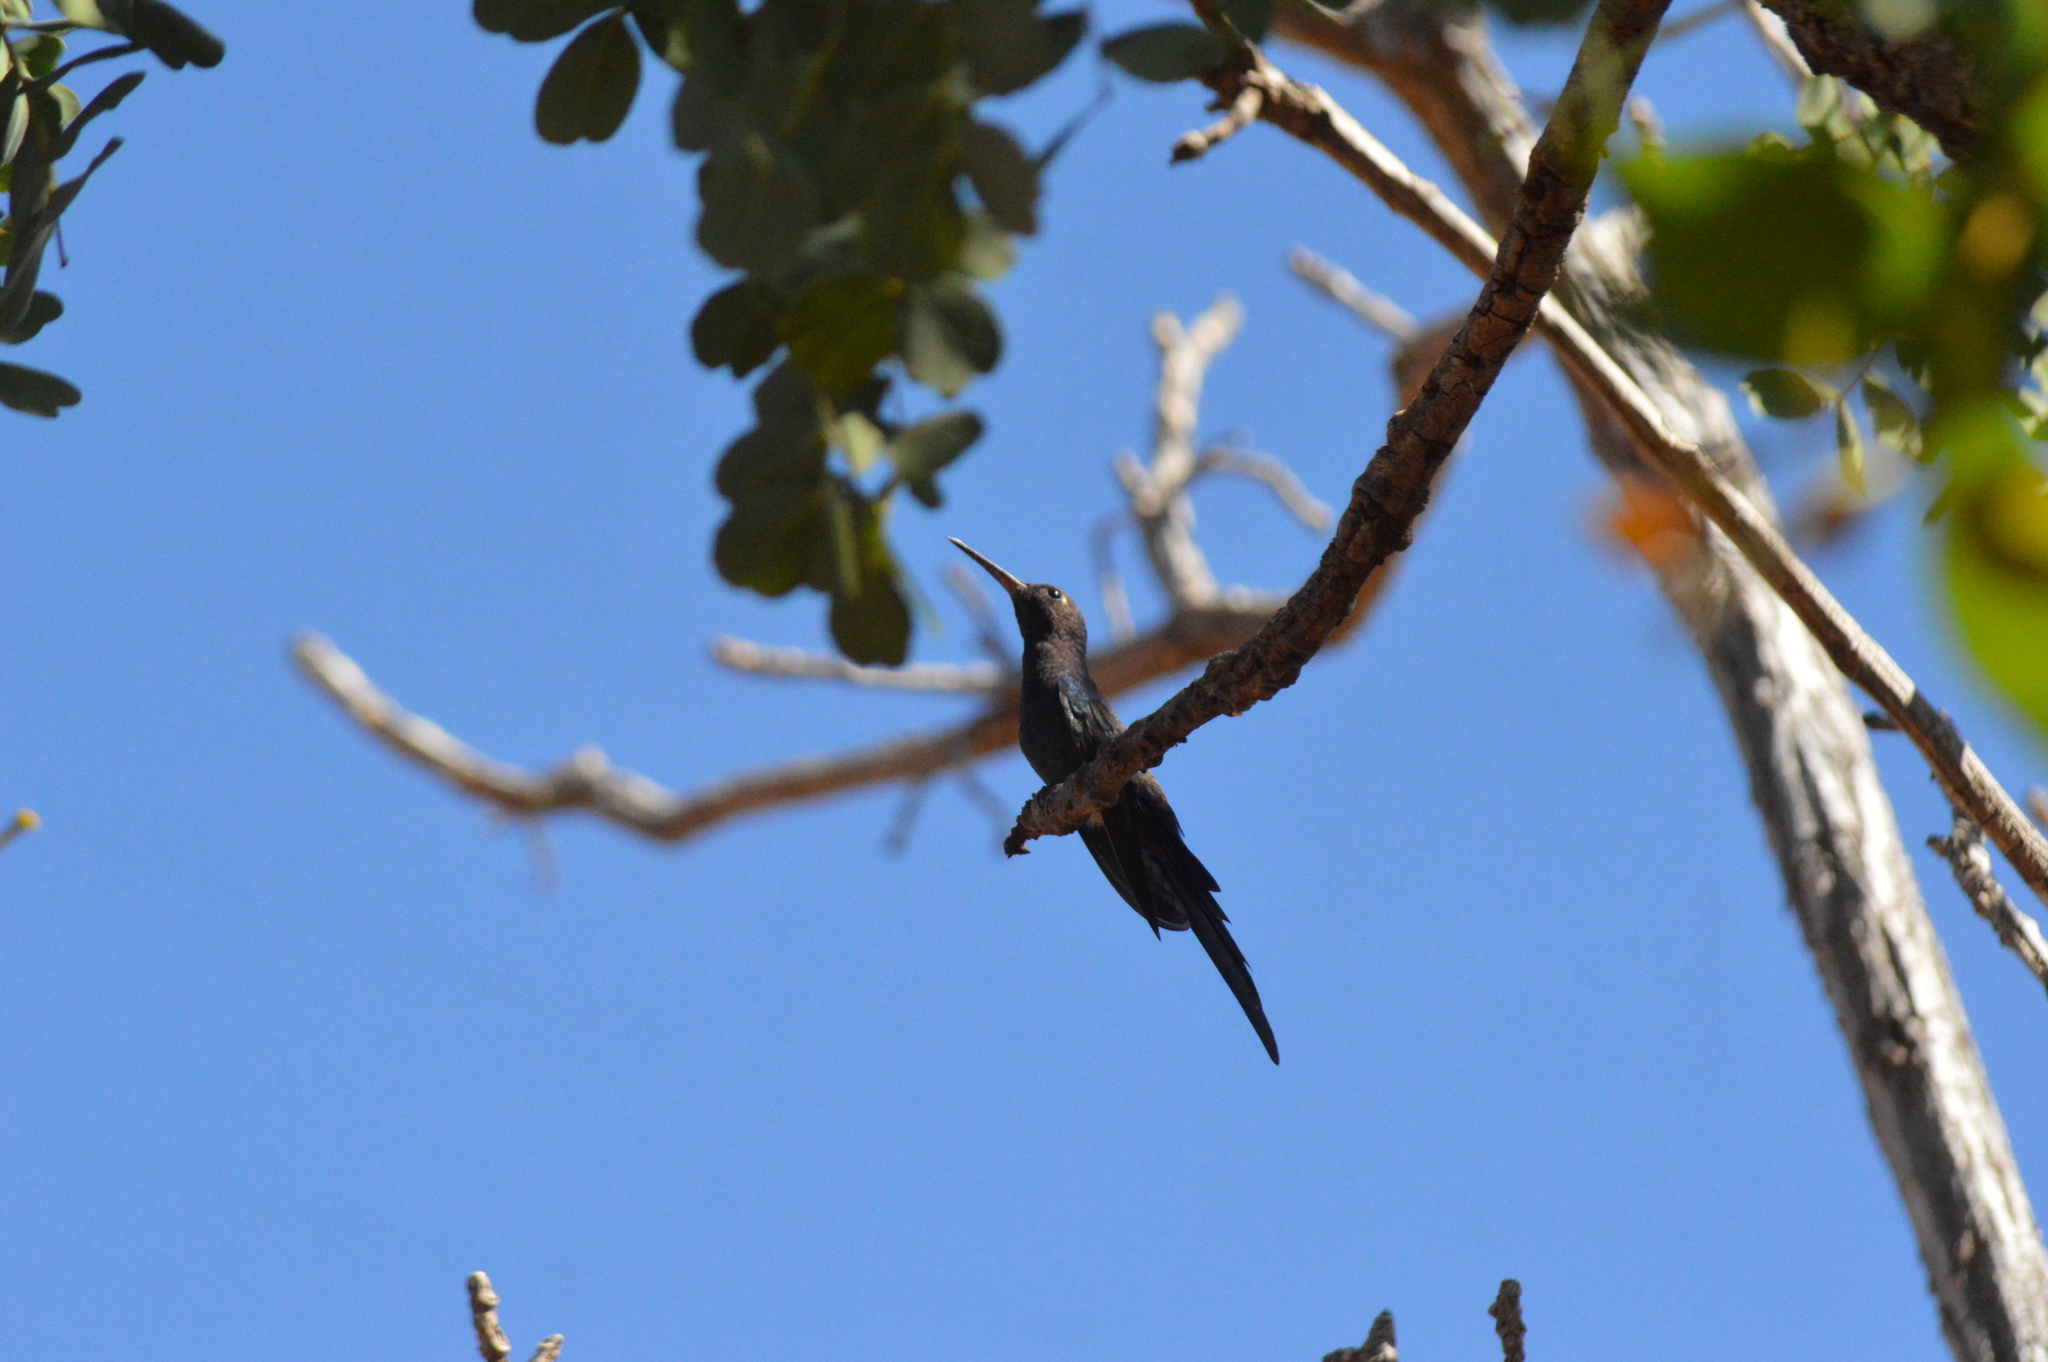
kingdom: Animalia
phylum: Chordata
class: Aves
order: Apodiformes
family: Trochilidae
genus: Eupetomena
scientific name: Eupetomena macroura
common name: Swallow-tailed hummingbird
